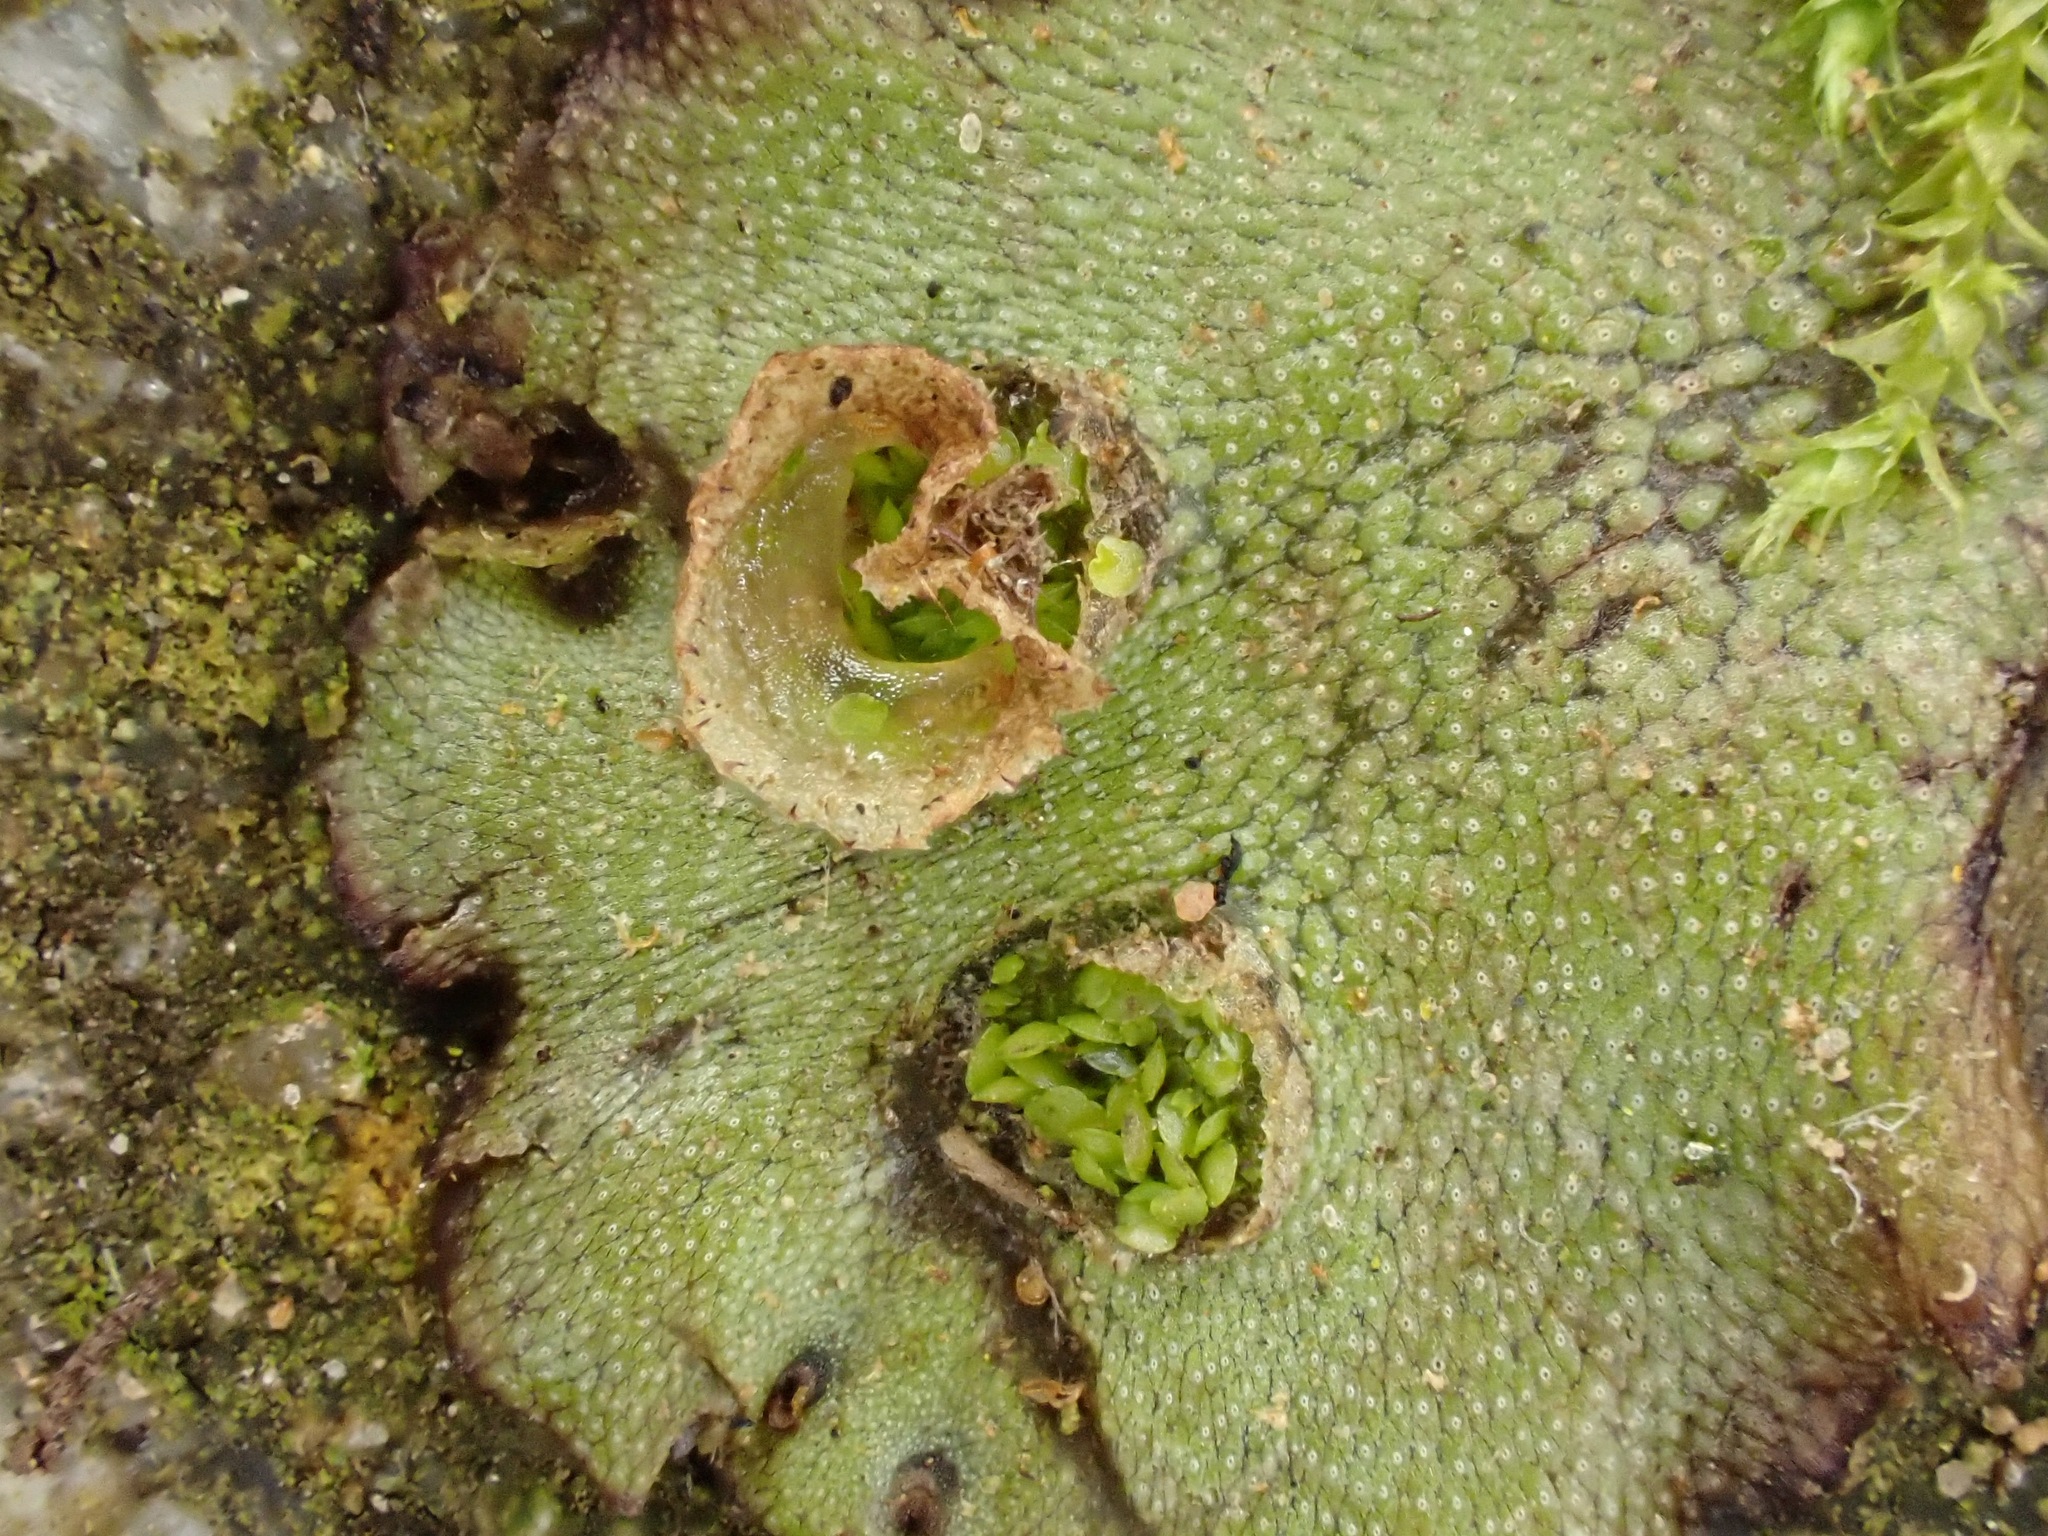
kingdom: Plantae
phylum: Marchantiophyta
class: Marchantiopsida
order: Marchantiales
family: Marchantiaceae
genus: Marchantia
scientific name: Marchantia polymorpha
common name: Common liverwort
